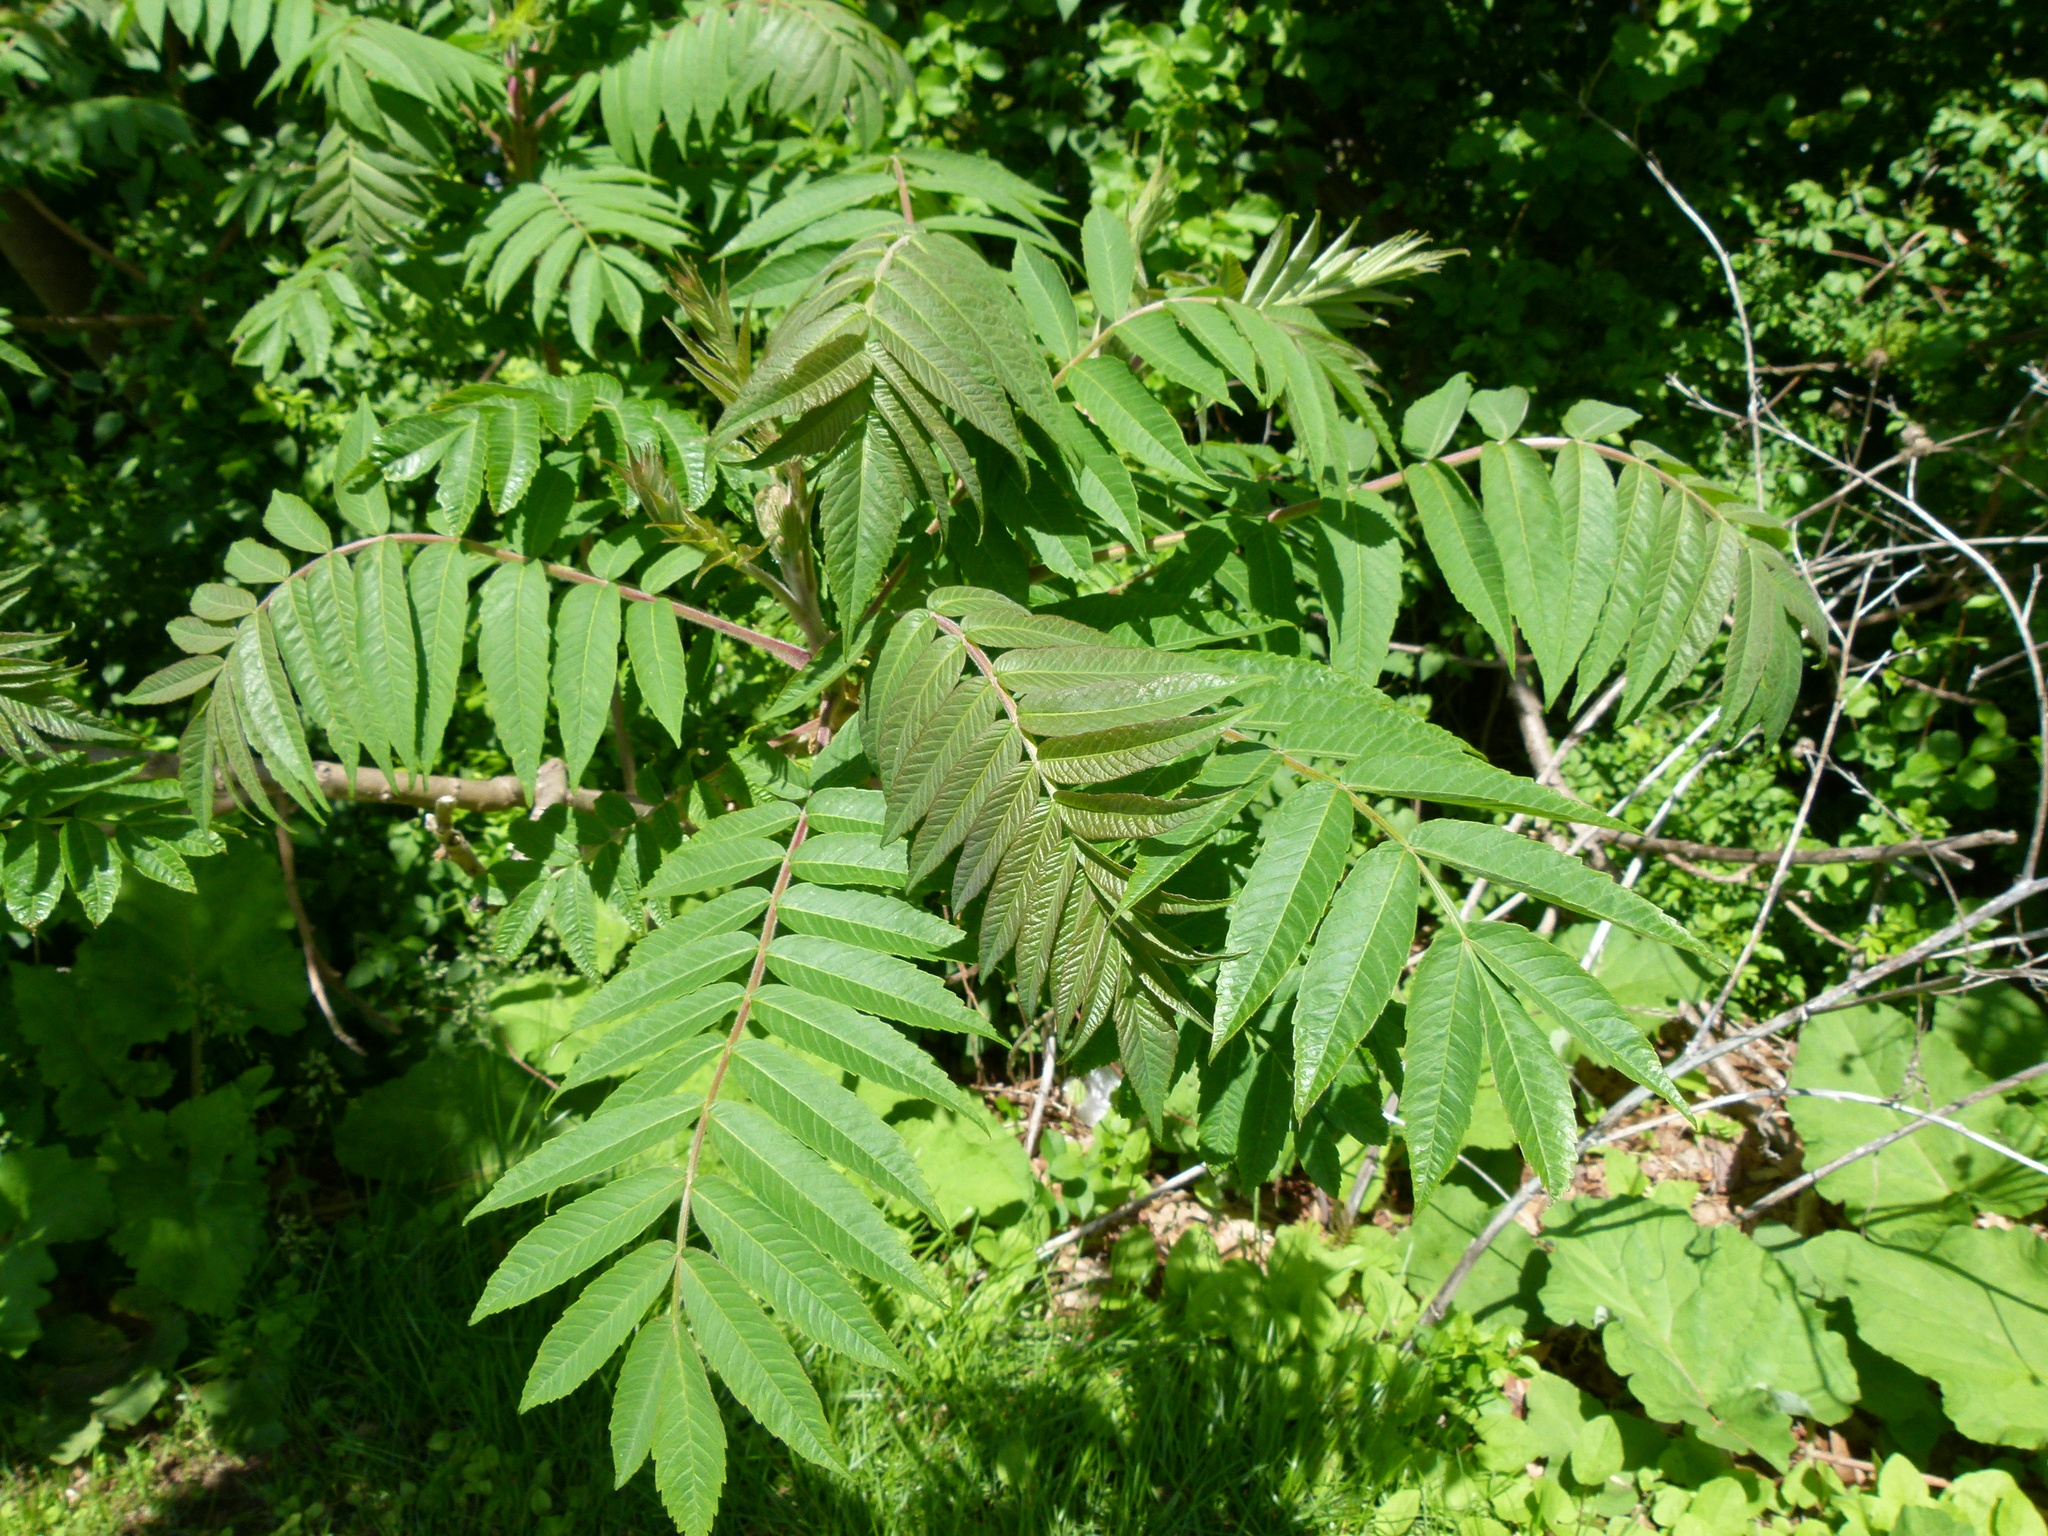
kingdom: Plantae
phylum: Tracheophyta
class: Magnoliopsida
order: Sapindales
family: Anacardiaceae
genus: Rhus
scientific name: Rhus typhina
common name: Staghorn sumac
